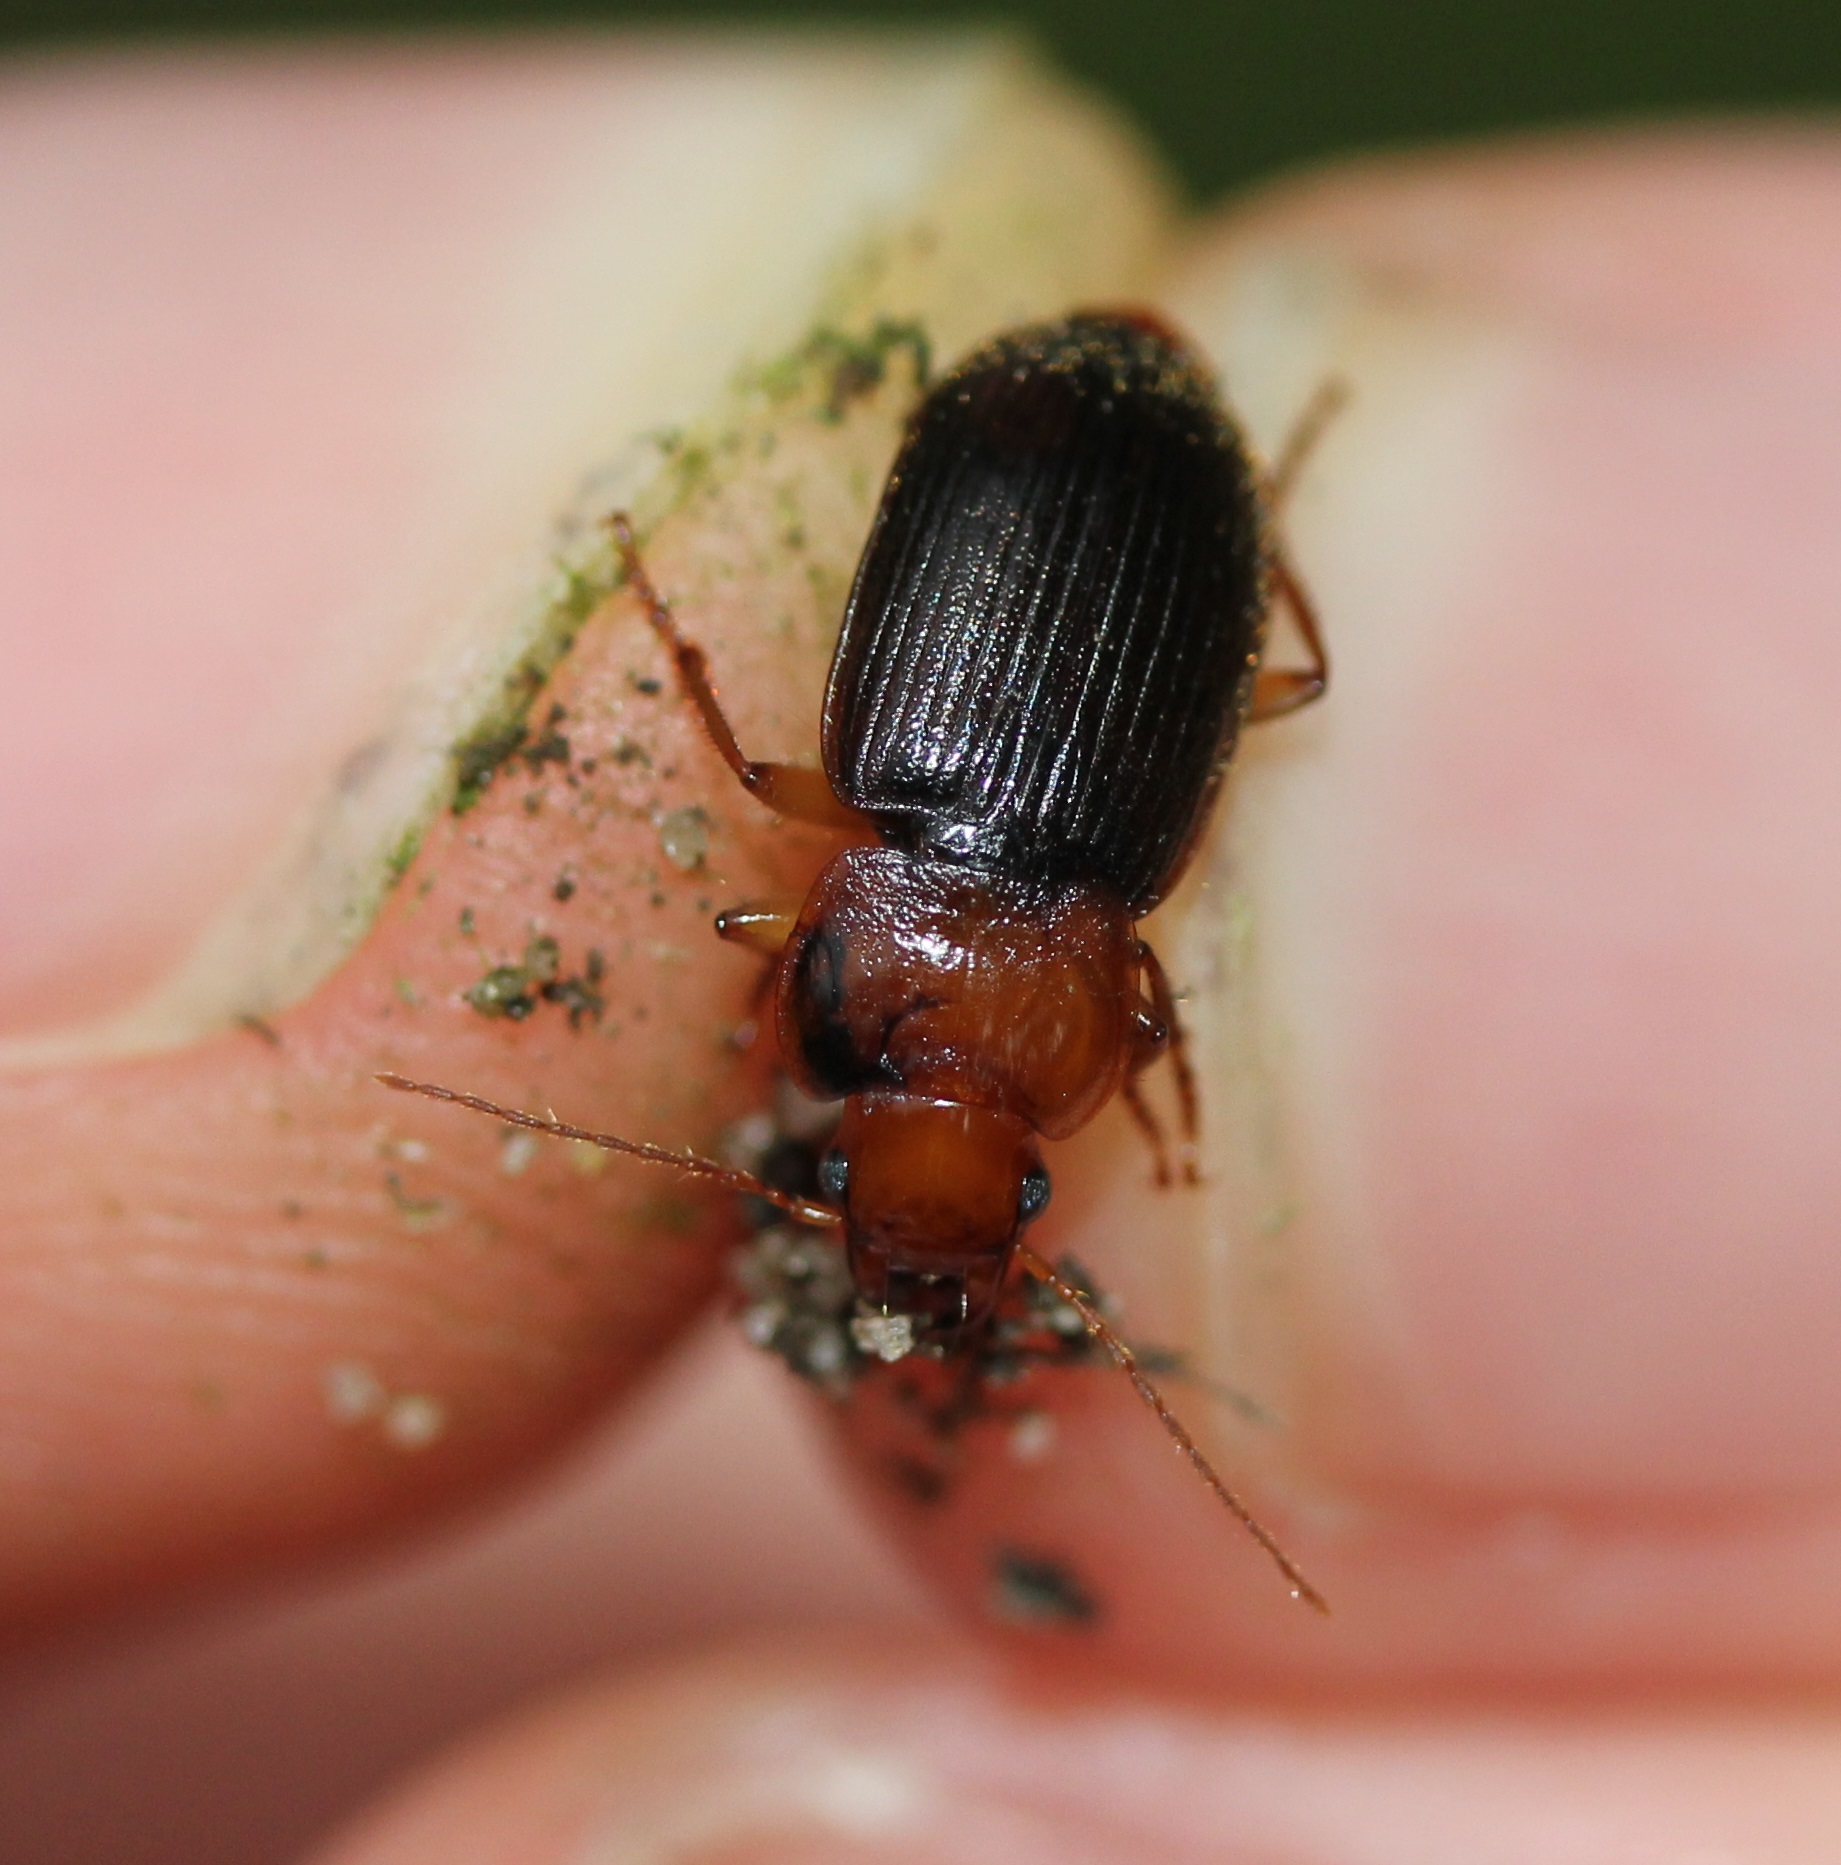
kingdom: Animalia
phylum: Arthropoda
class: Insecta
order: Coleoptera
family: Carabidae
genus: Amphasia
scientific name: Amphasia interstitialis
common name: Red-headed ground beetle
